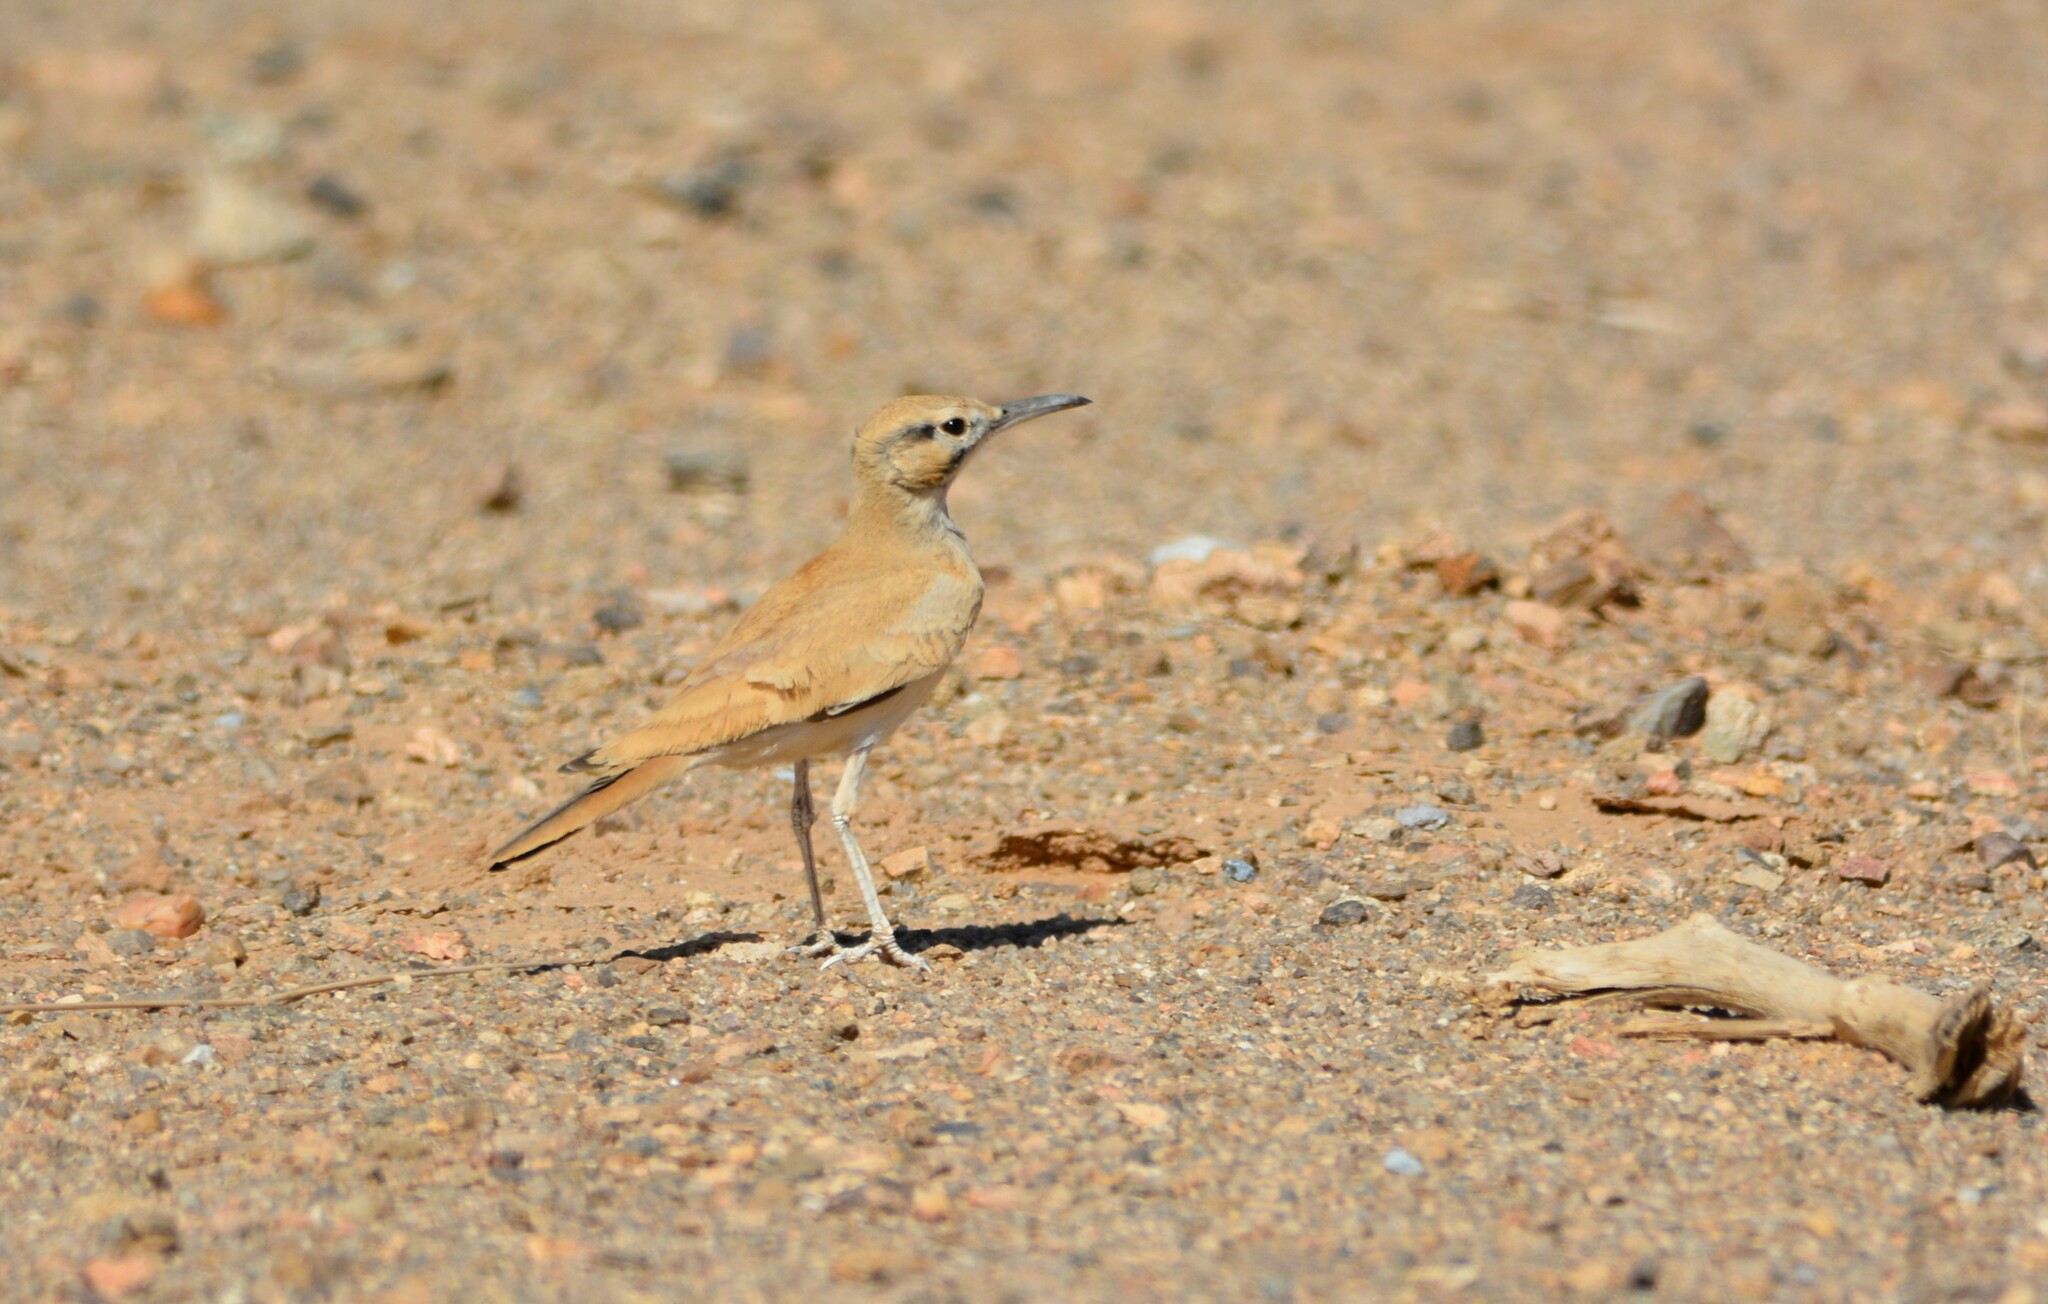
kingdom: Animalia
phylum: Chordata
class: Aves
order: Passeriformes
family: Alaudidae
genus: Alaemon
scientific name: Alaemon alaudipes
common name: Greater hoopoe-lark
